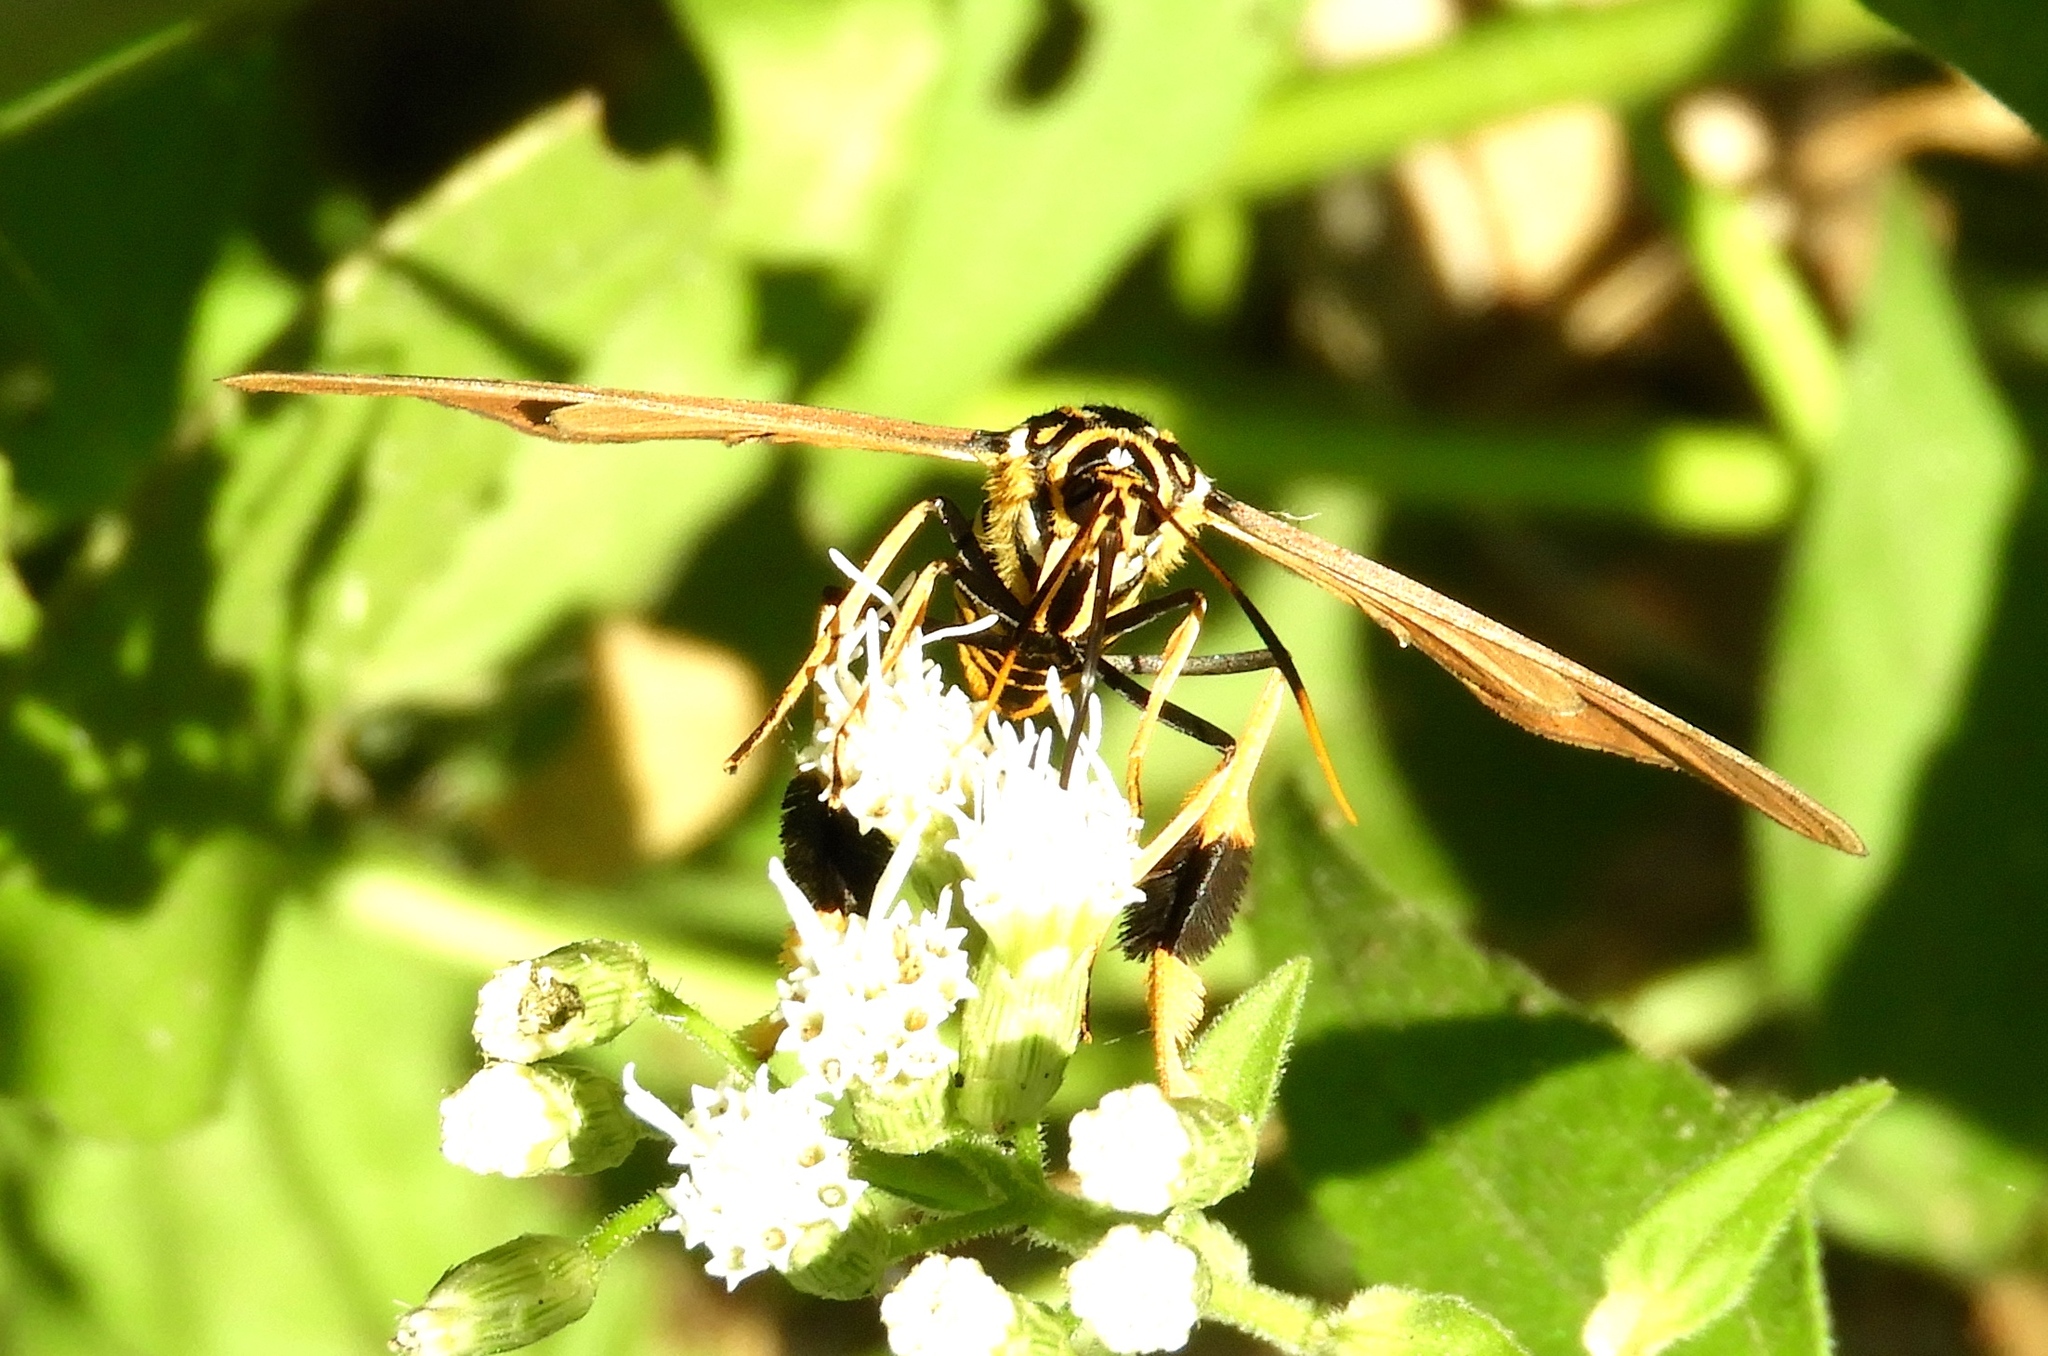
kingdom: Animalia
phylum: Arthropoda
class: Insecta
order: Lepidoptera
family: Erebidae
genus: Horama
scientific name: Horama panthalon
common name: Texas wasp moth
